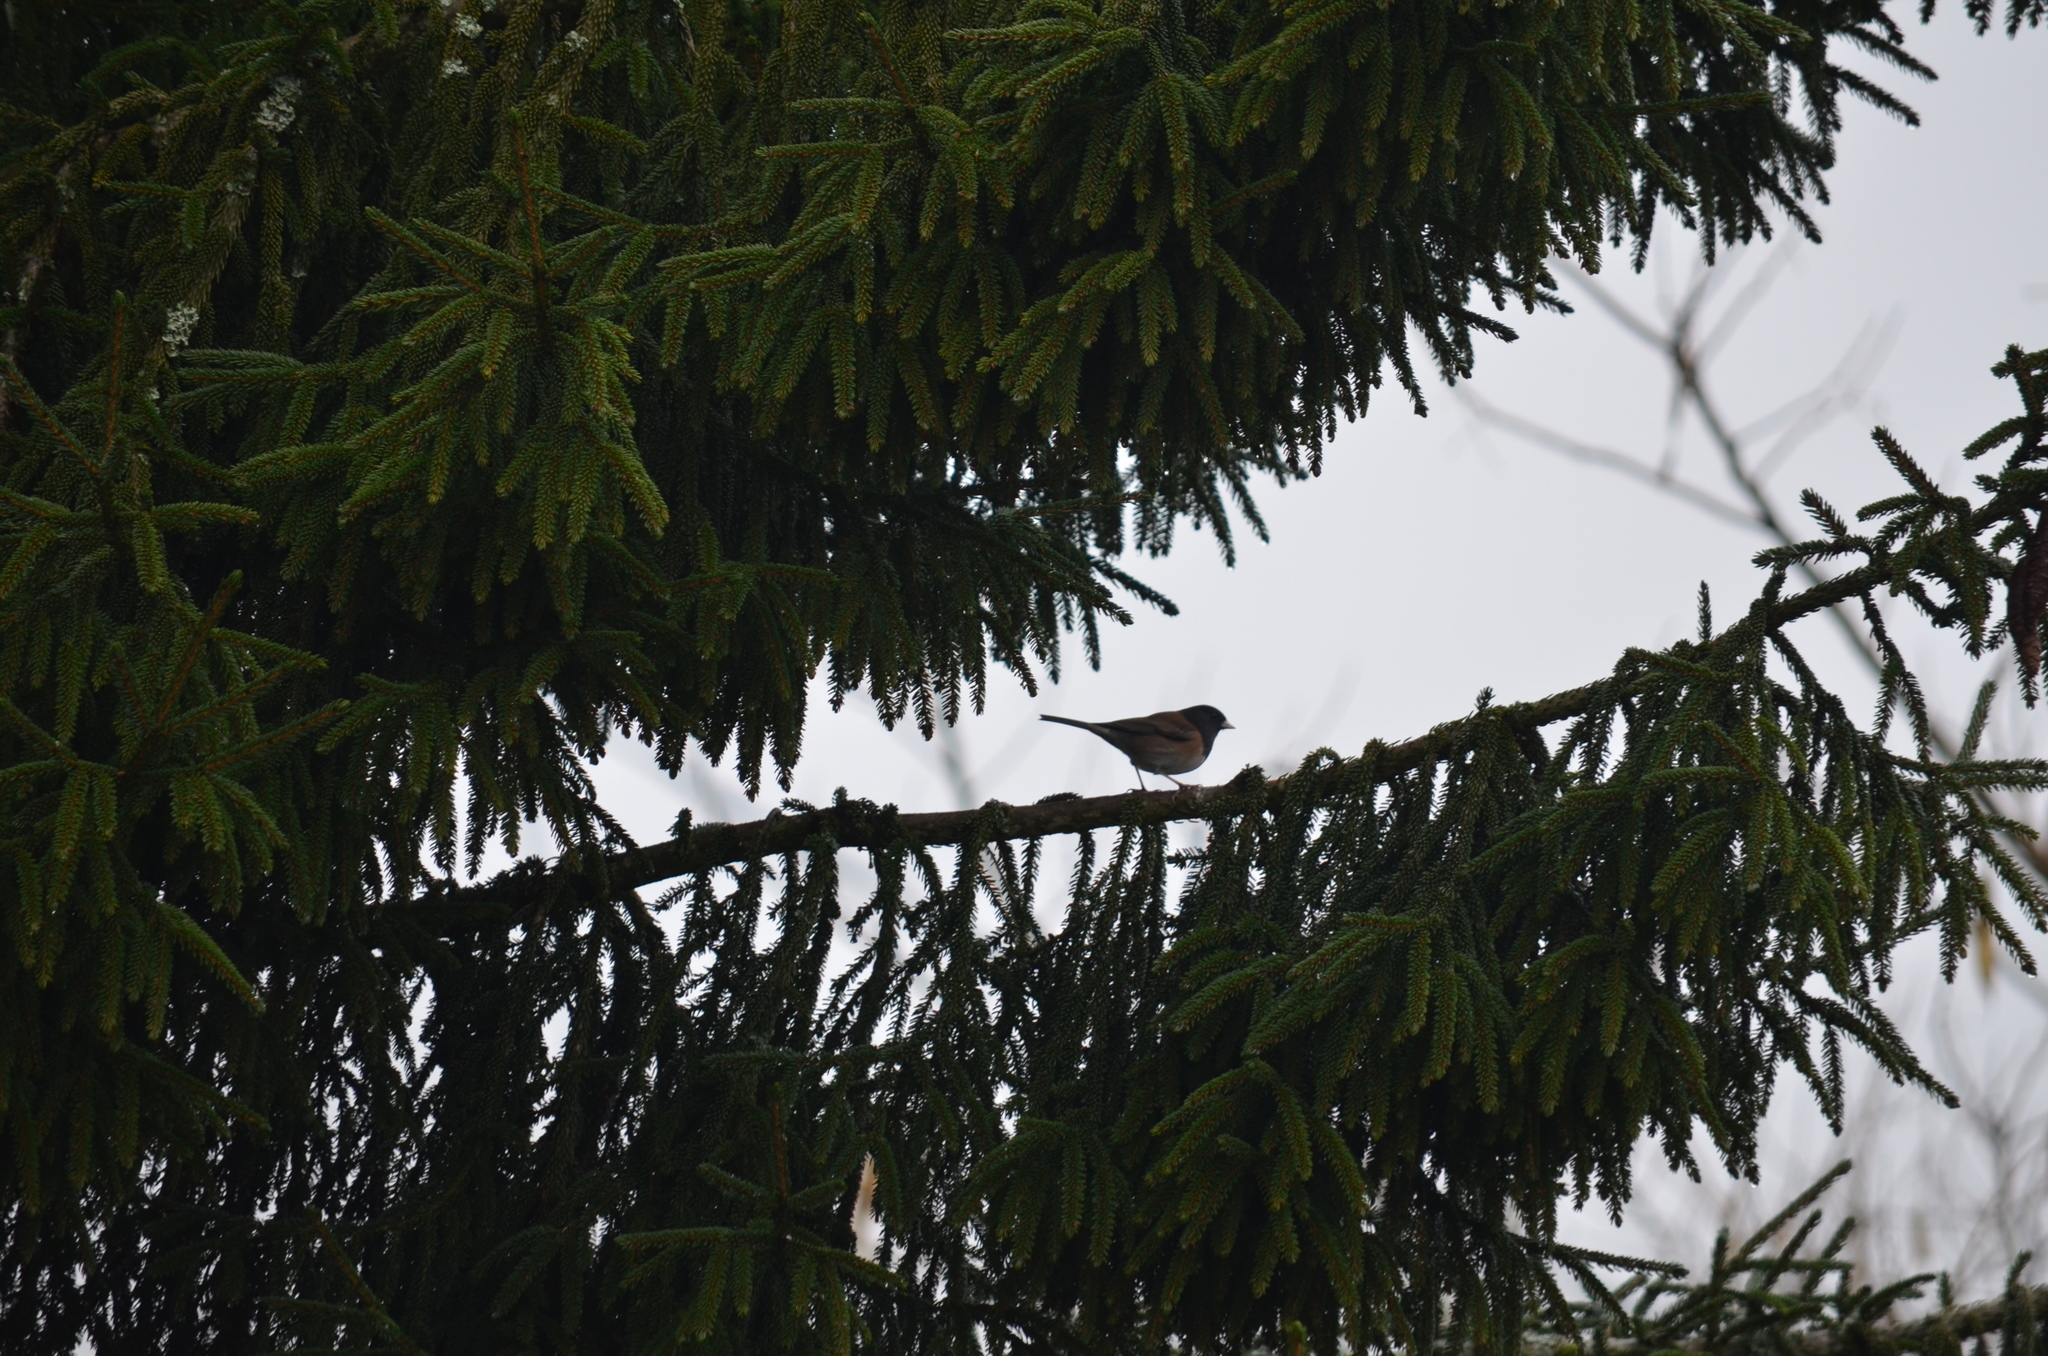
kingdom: Animalia
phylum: Chordata
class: Aves
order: Passeriformes
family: Passerellidae
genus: Junco
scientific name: Junco hyemalis
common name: Dark-eyed junco
